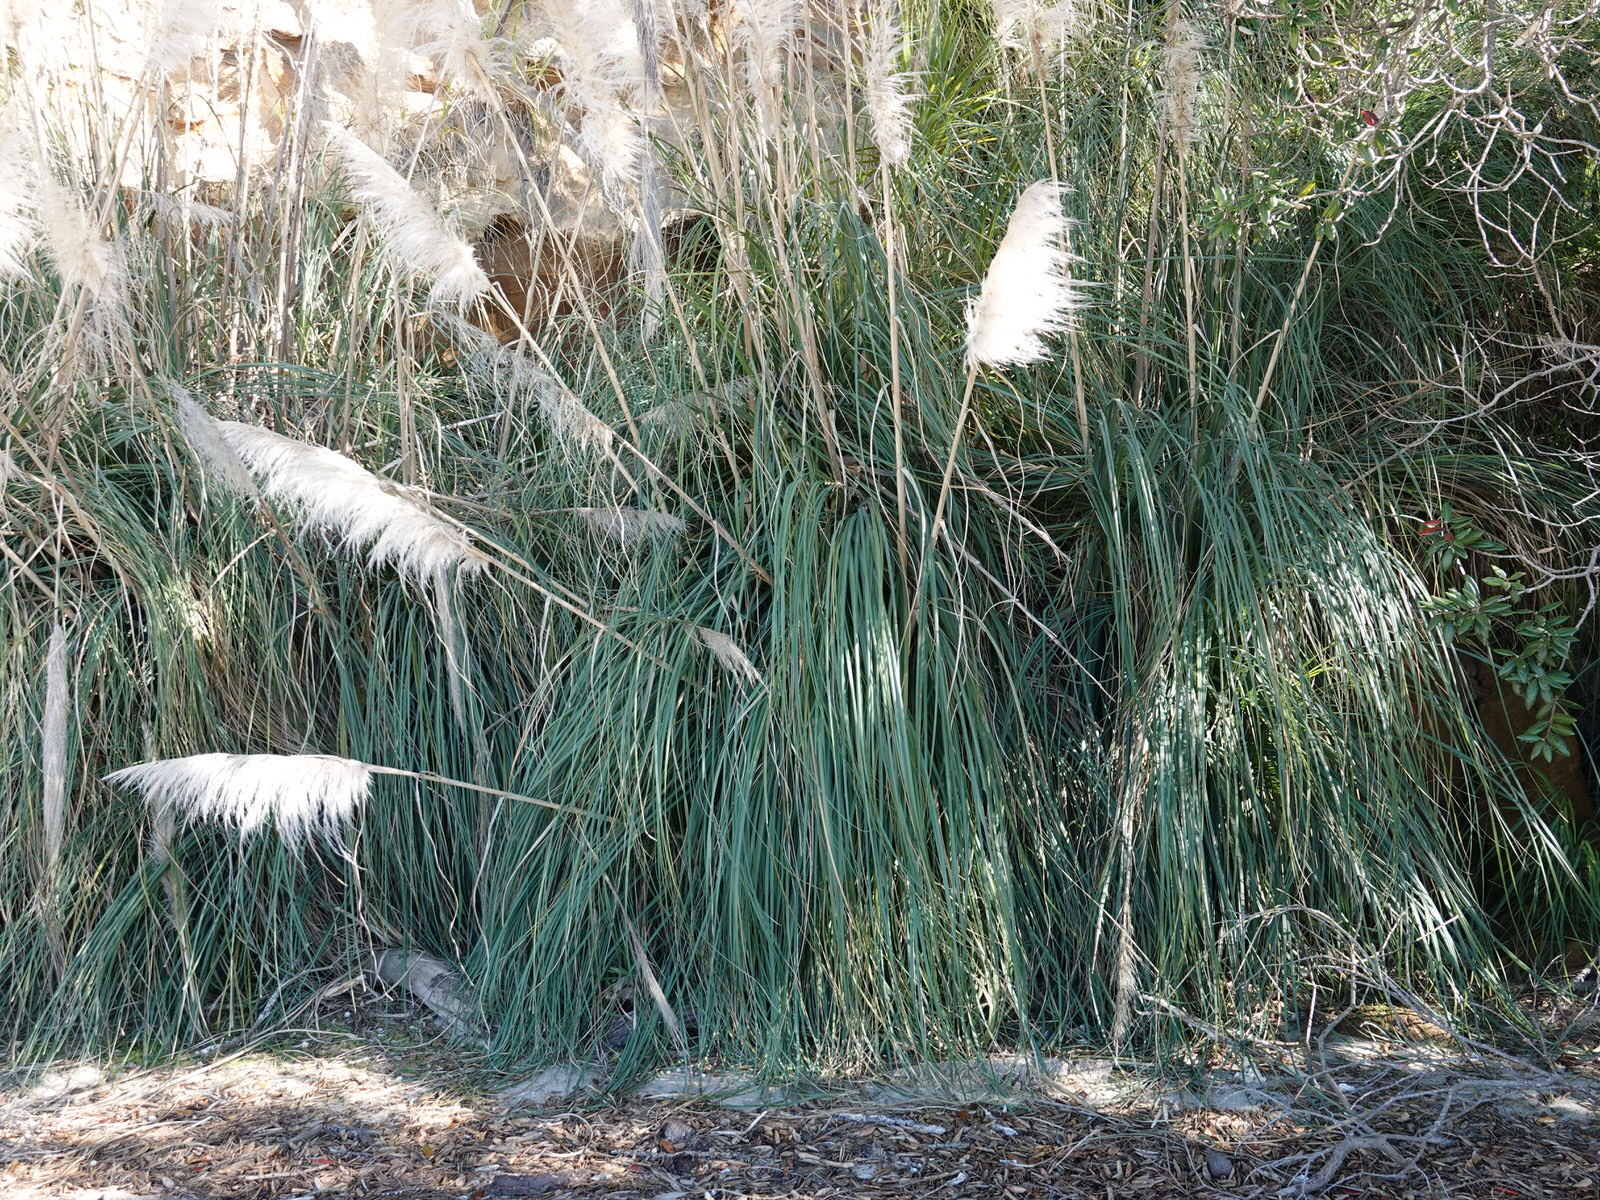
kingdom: Plantae
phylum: Tracheophyta
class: Liliopsida
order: Poales
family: Poaceae
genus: Cortaderia
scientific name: Cortaderia selloana
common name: Uruguayan pampas grass
